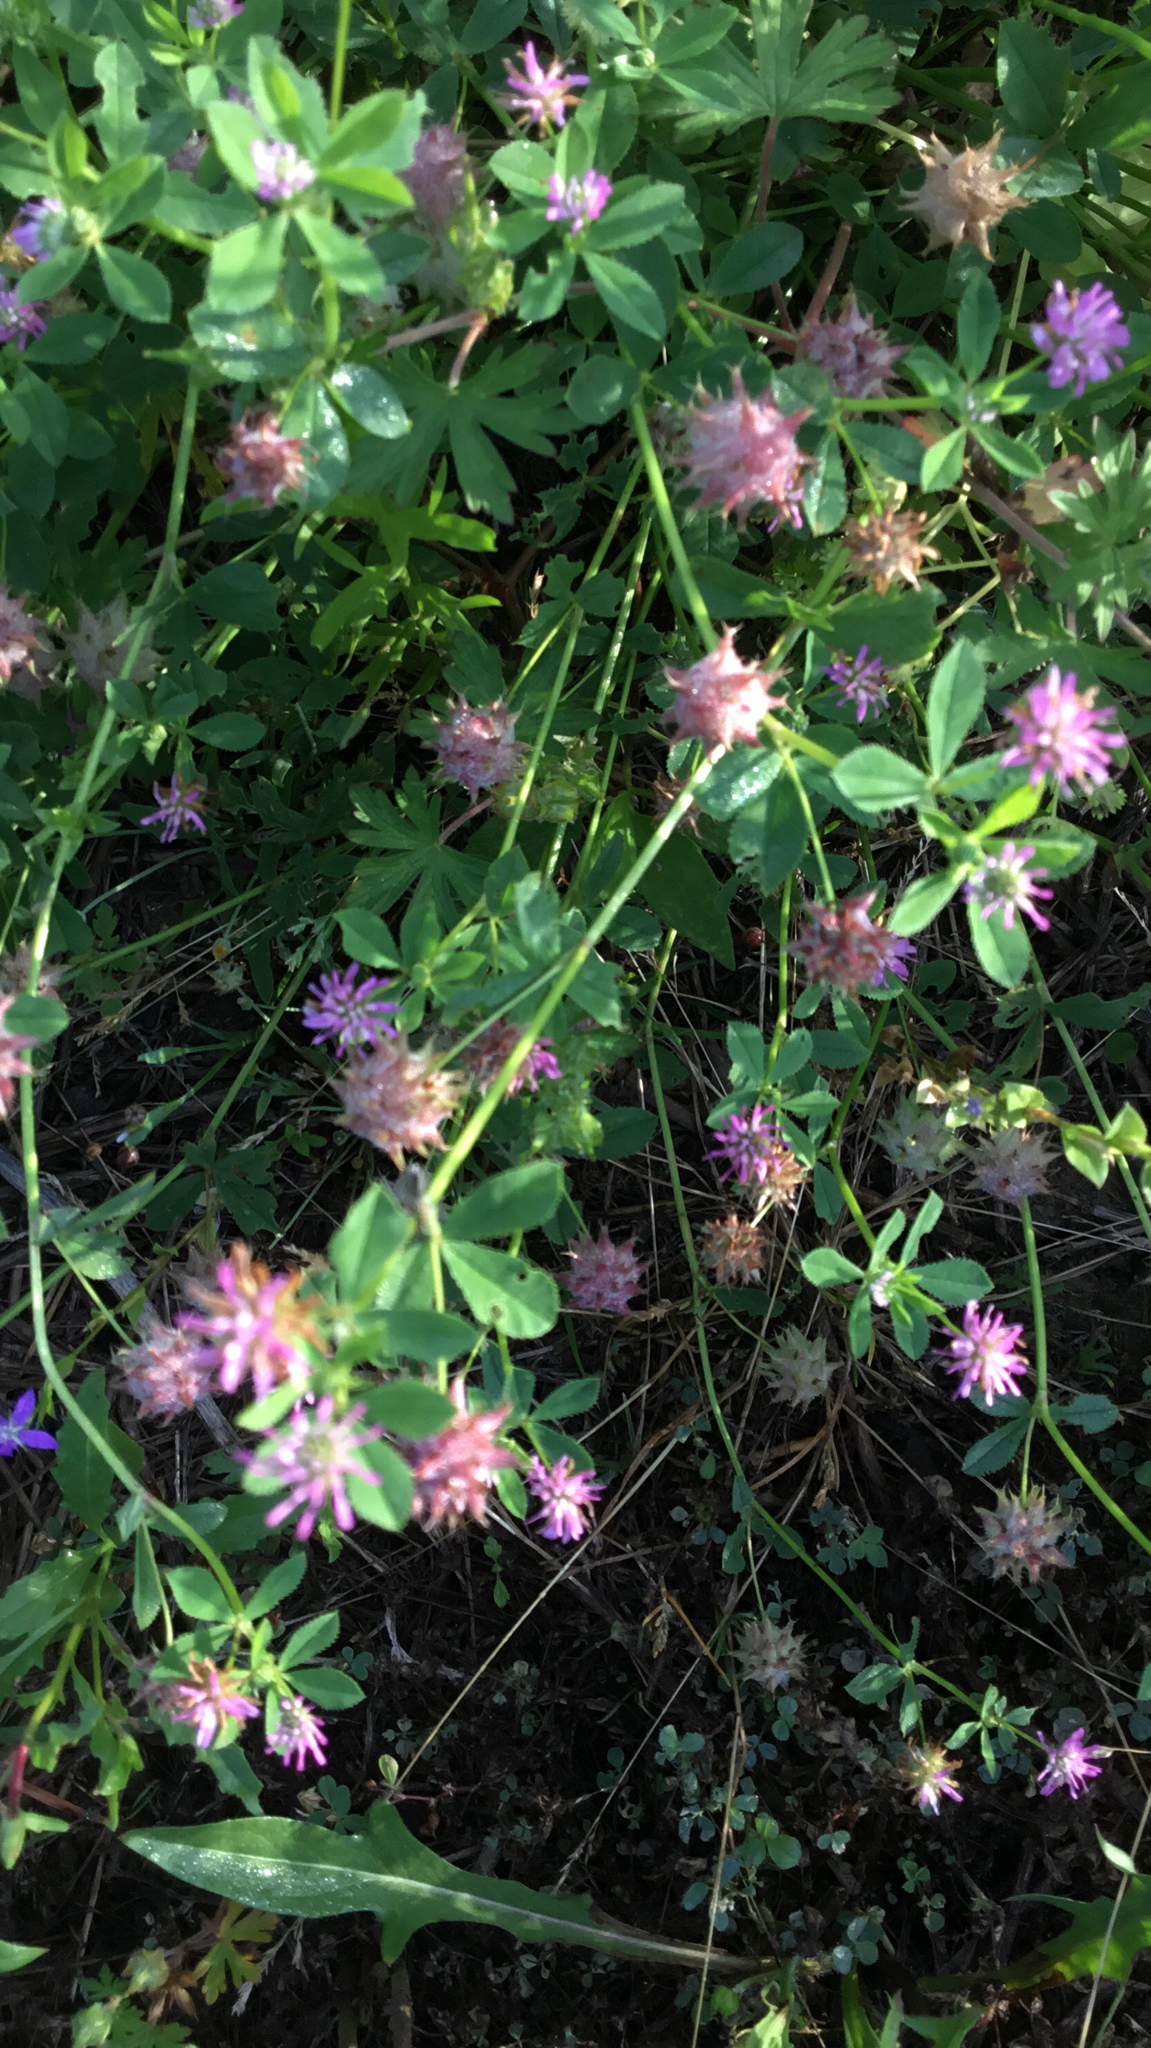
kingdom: Plantae
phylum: Tracheophyta
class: Magnoliopsida
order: Fabales
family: Fabaceae
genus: Trifolium
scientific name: Trifolium resupinatum
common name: Reversed clover
